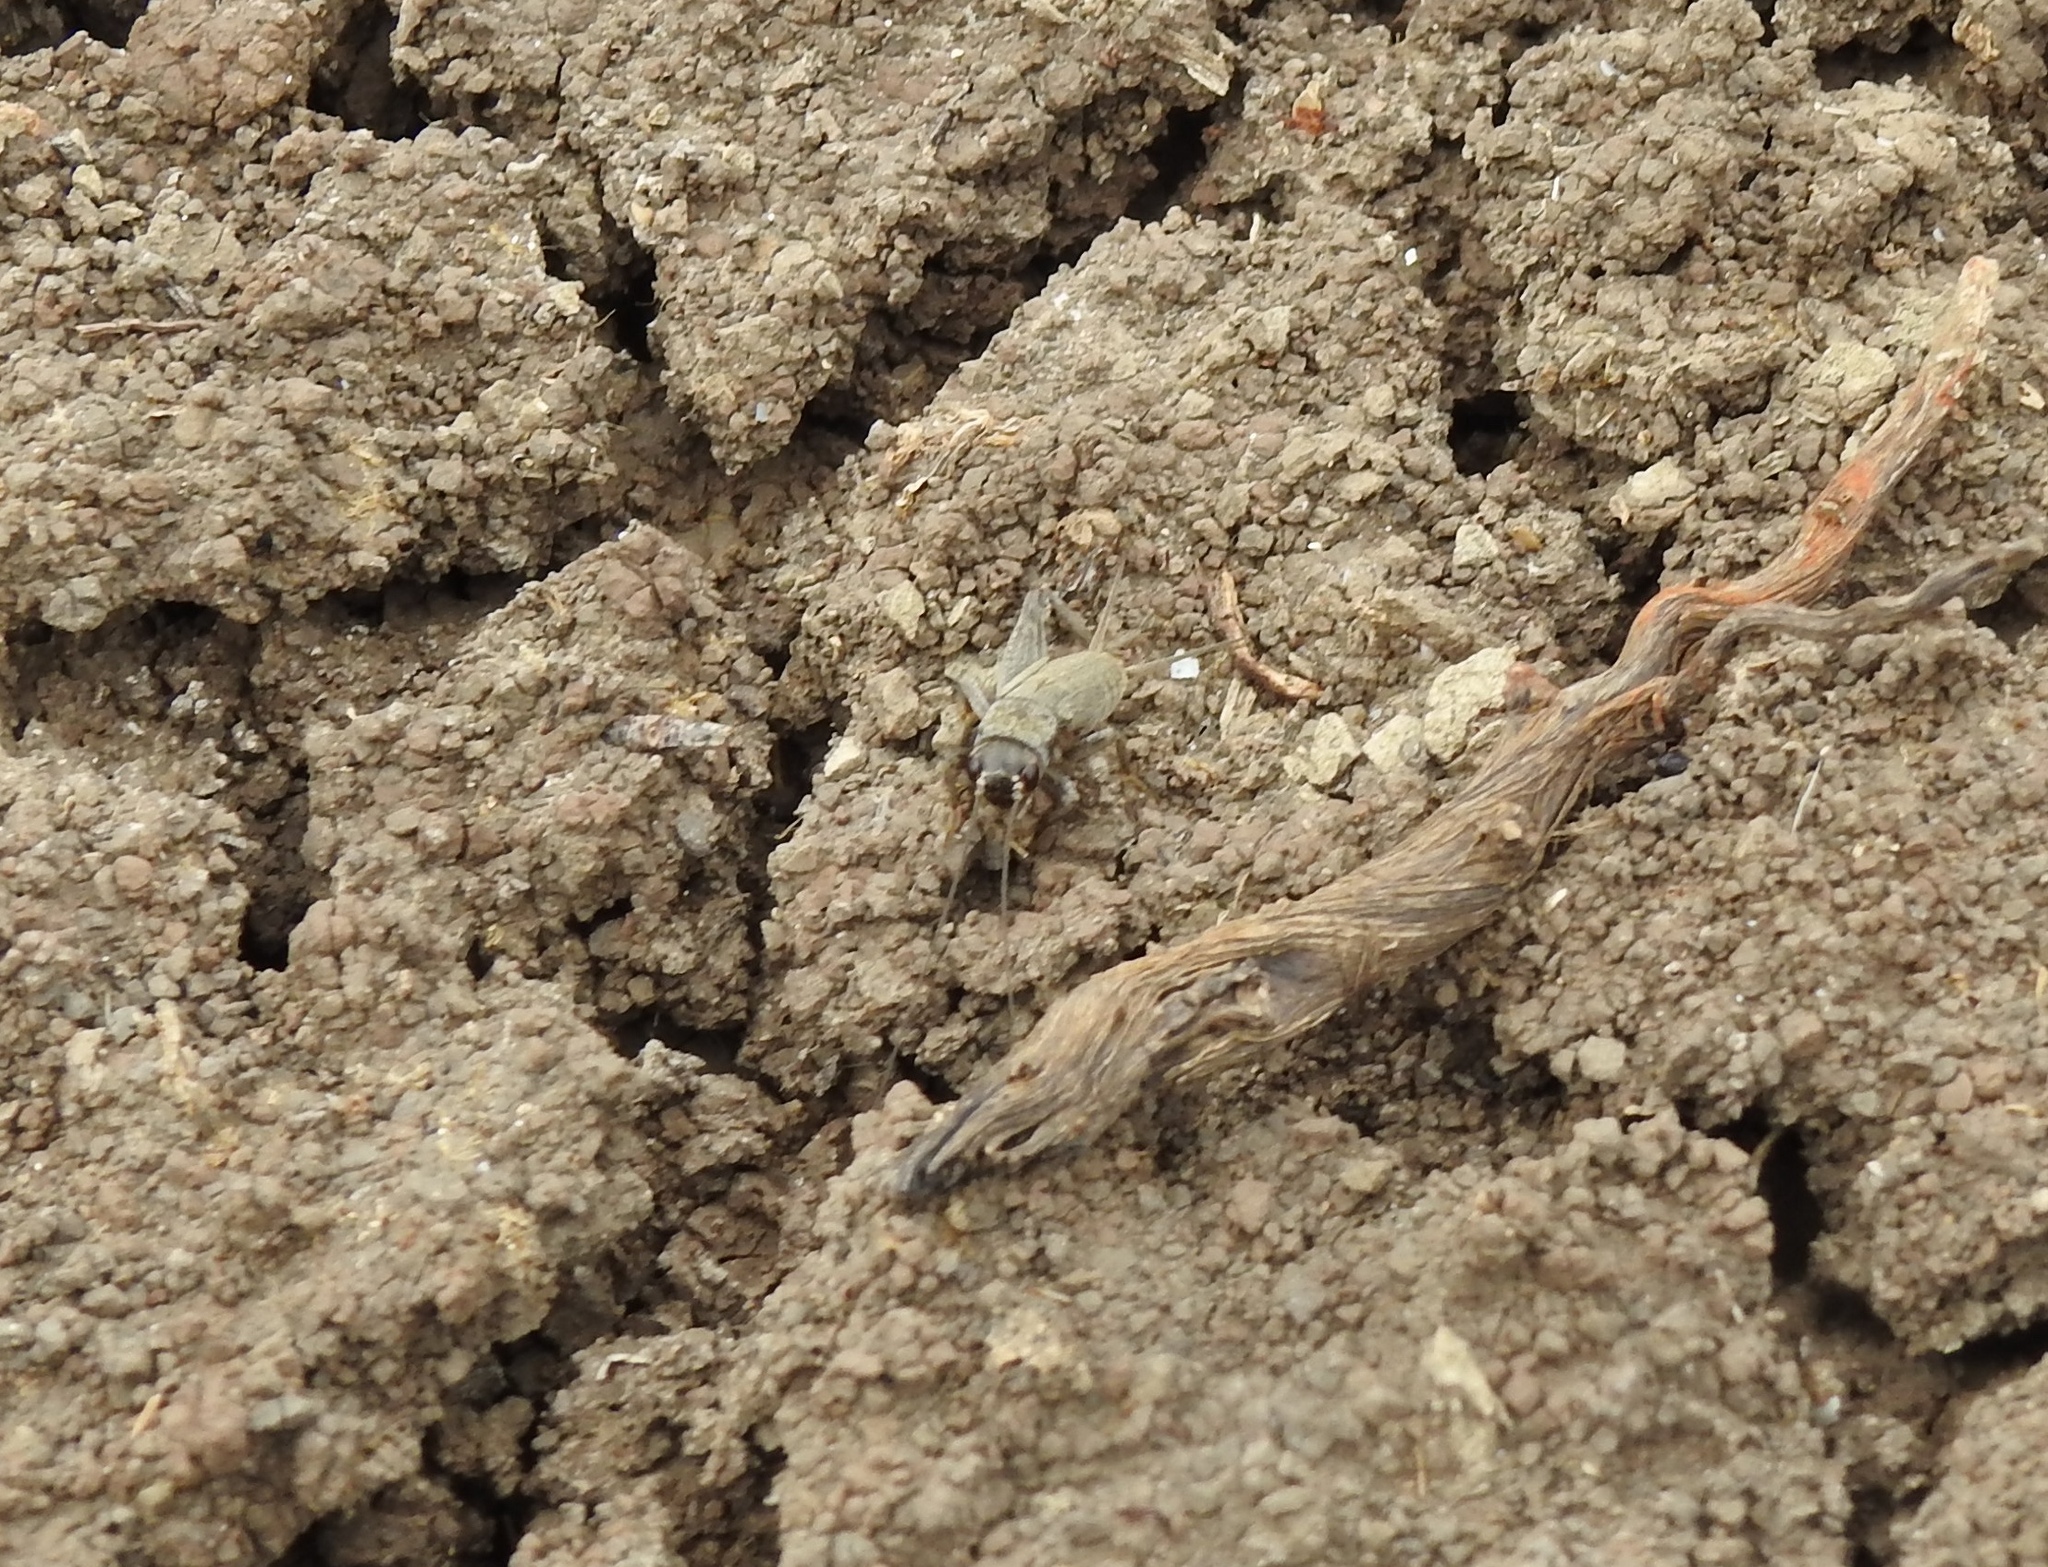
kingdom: Animalia
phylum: Arthropoda
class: Insecta
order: Orthoptera
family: Gryllidae
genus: Eumodicogryllus
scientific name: Eumodicogryllus bordigalensis
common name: Bordeaux cricket
